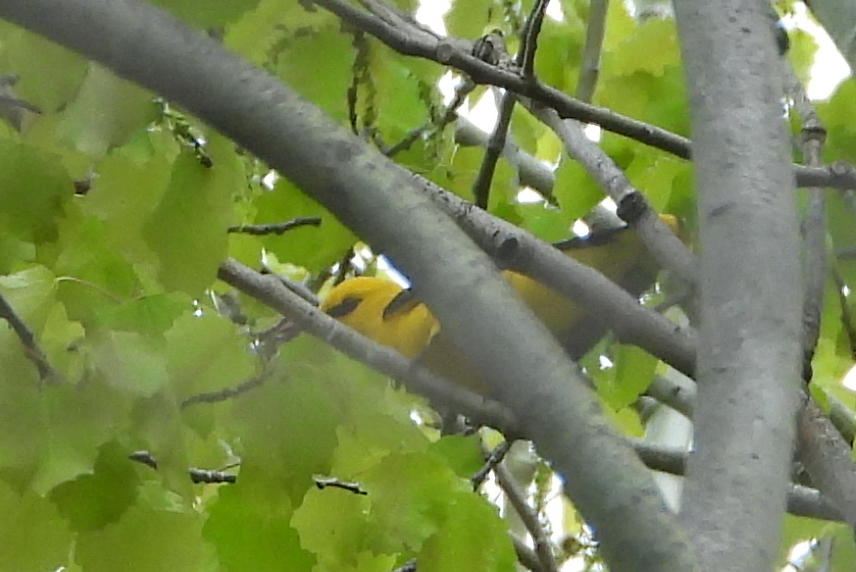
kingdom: Animalia
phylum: Chordata
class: Aves
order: Passeriformes
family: Oriolidae
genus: Oriolus
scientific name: Oriolus oriolus
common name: Eurasian golden oriole
